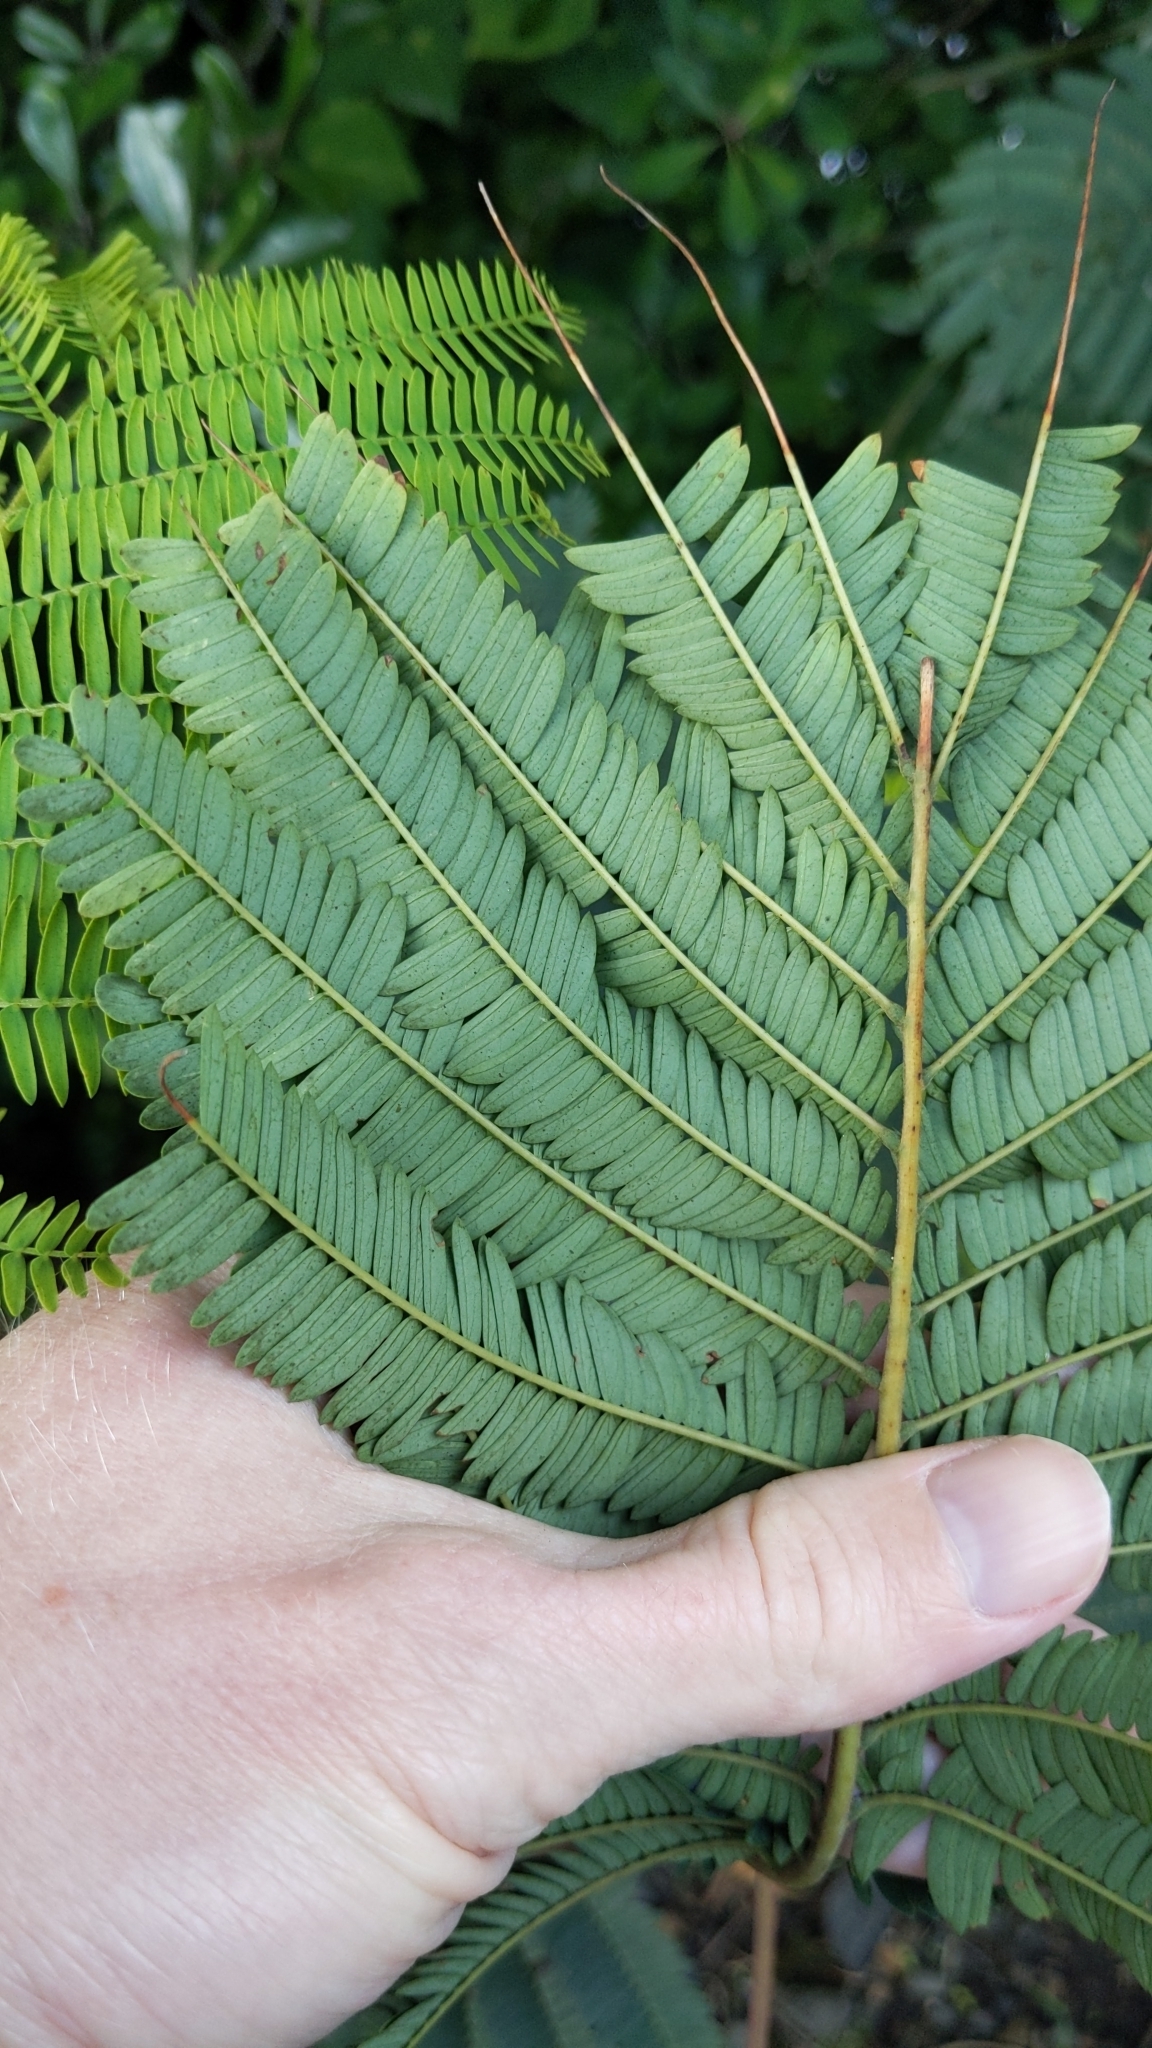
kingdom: Plantae
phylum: Tracheophyta
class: Magnoliopsida
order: Fabales
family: Fabaceae
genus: Paraserianthes
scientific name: Paraserianthes lophantha
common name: Plume albizia
